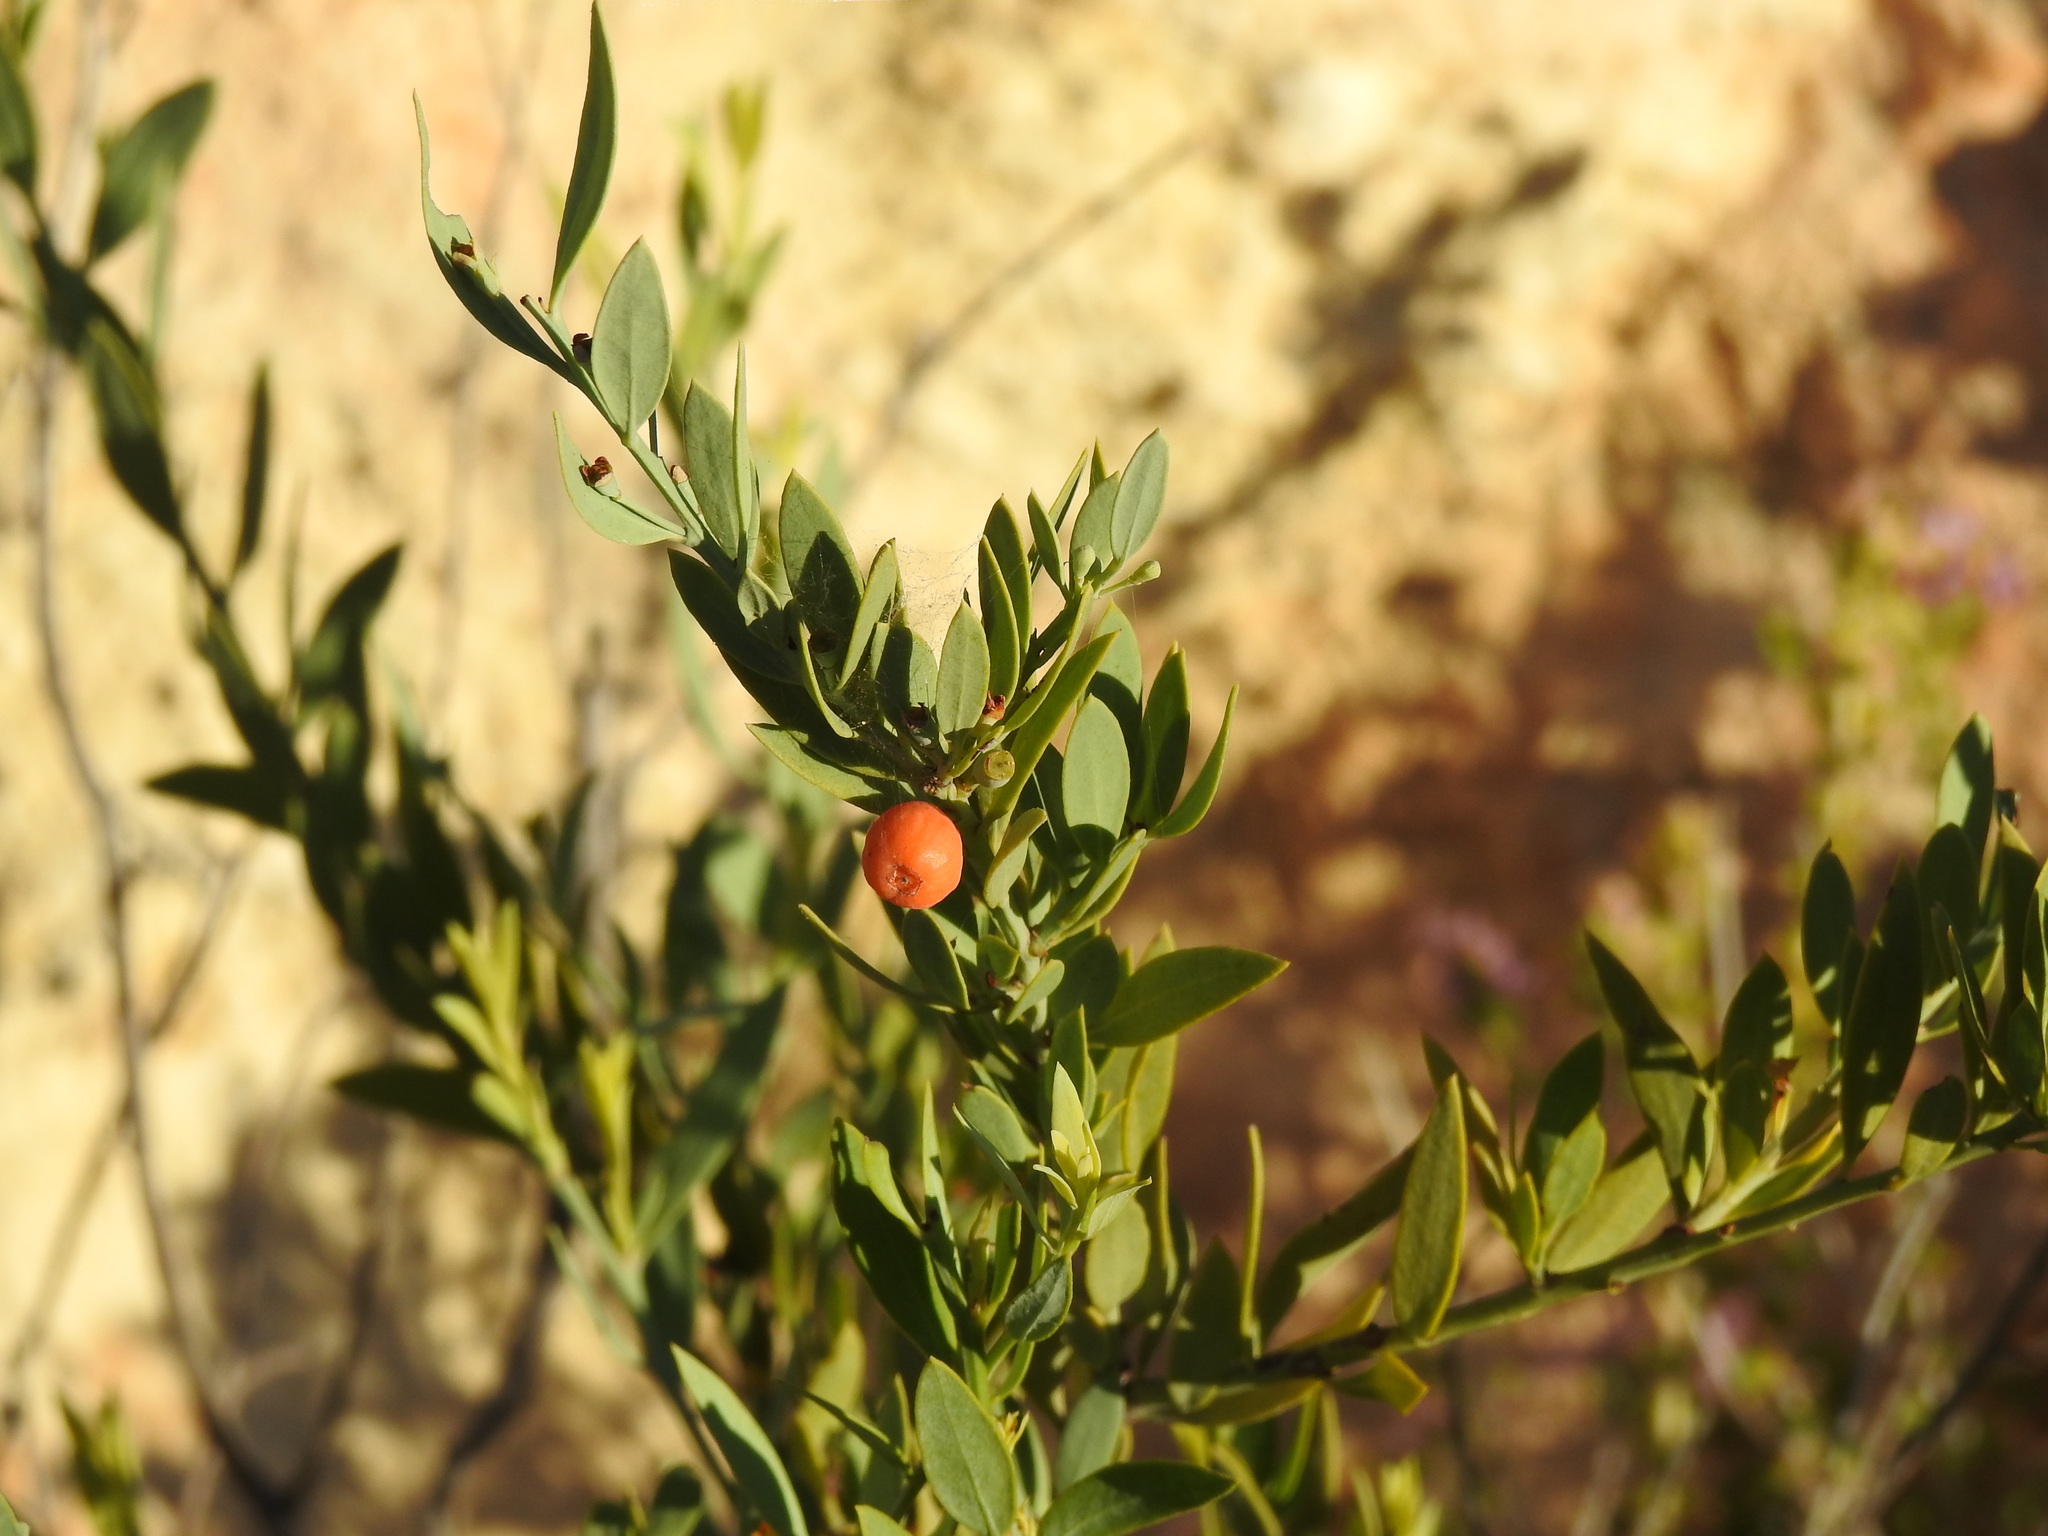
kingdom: Plantae
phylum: Tracheophyta
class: Magnoliopsida
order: Santalales
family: Santalaceae
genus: Osyris
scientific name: Osyris lanceolata
